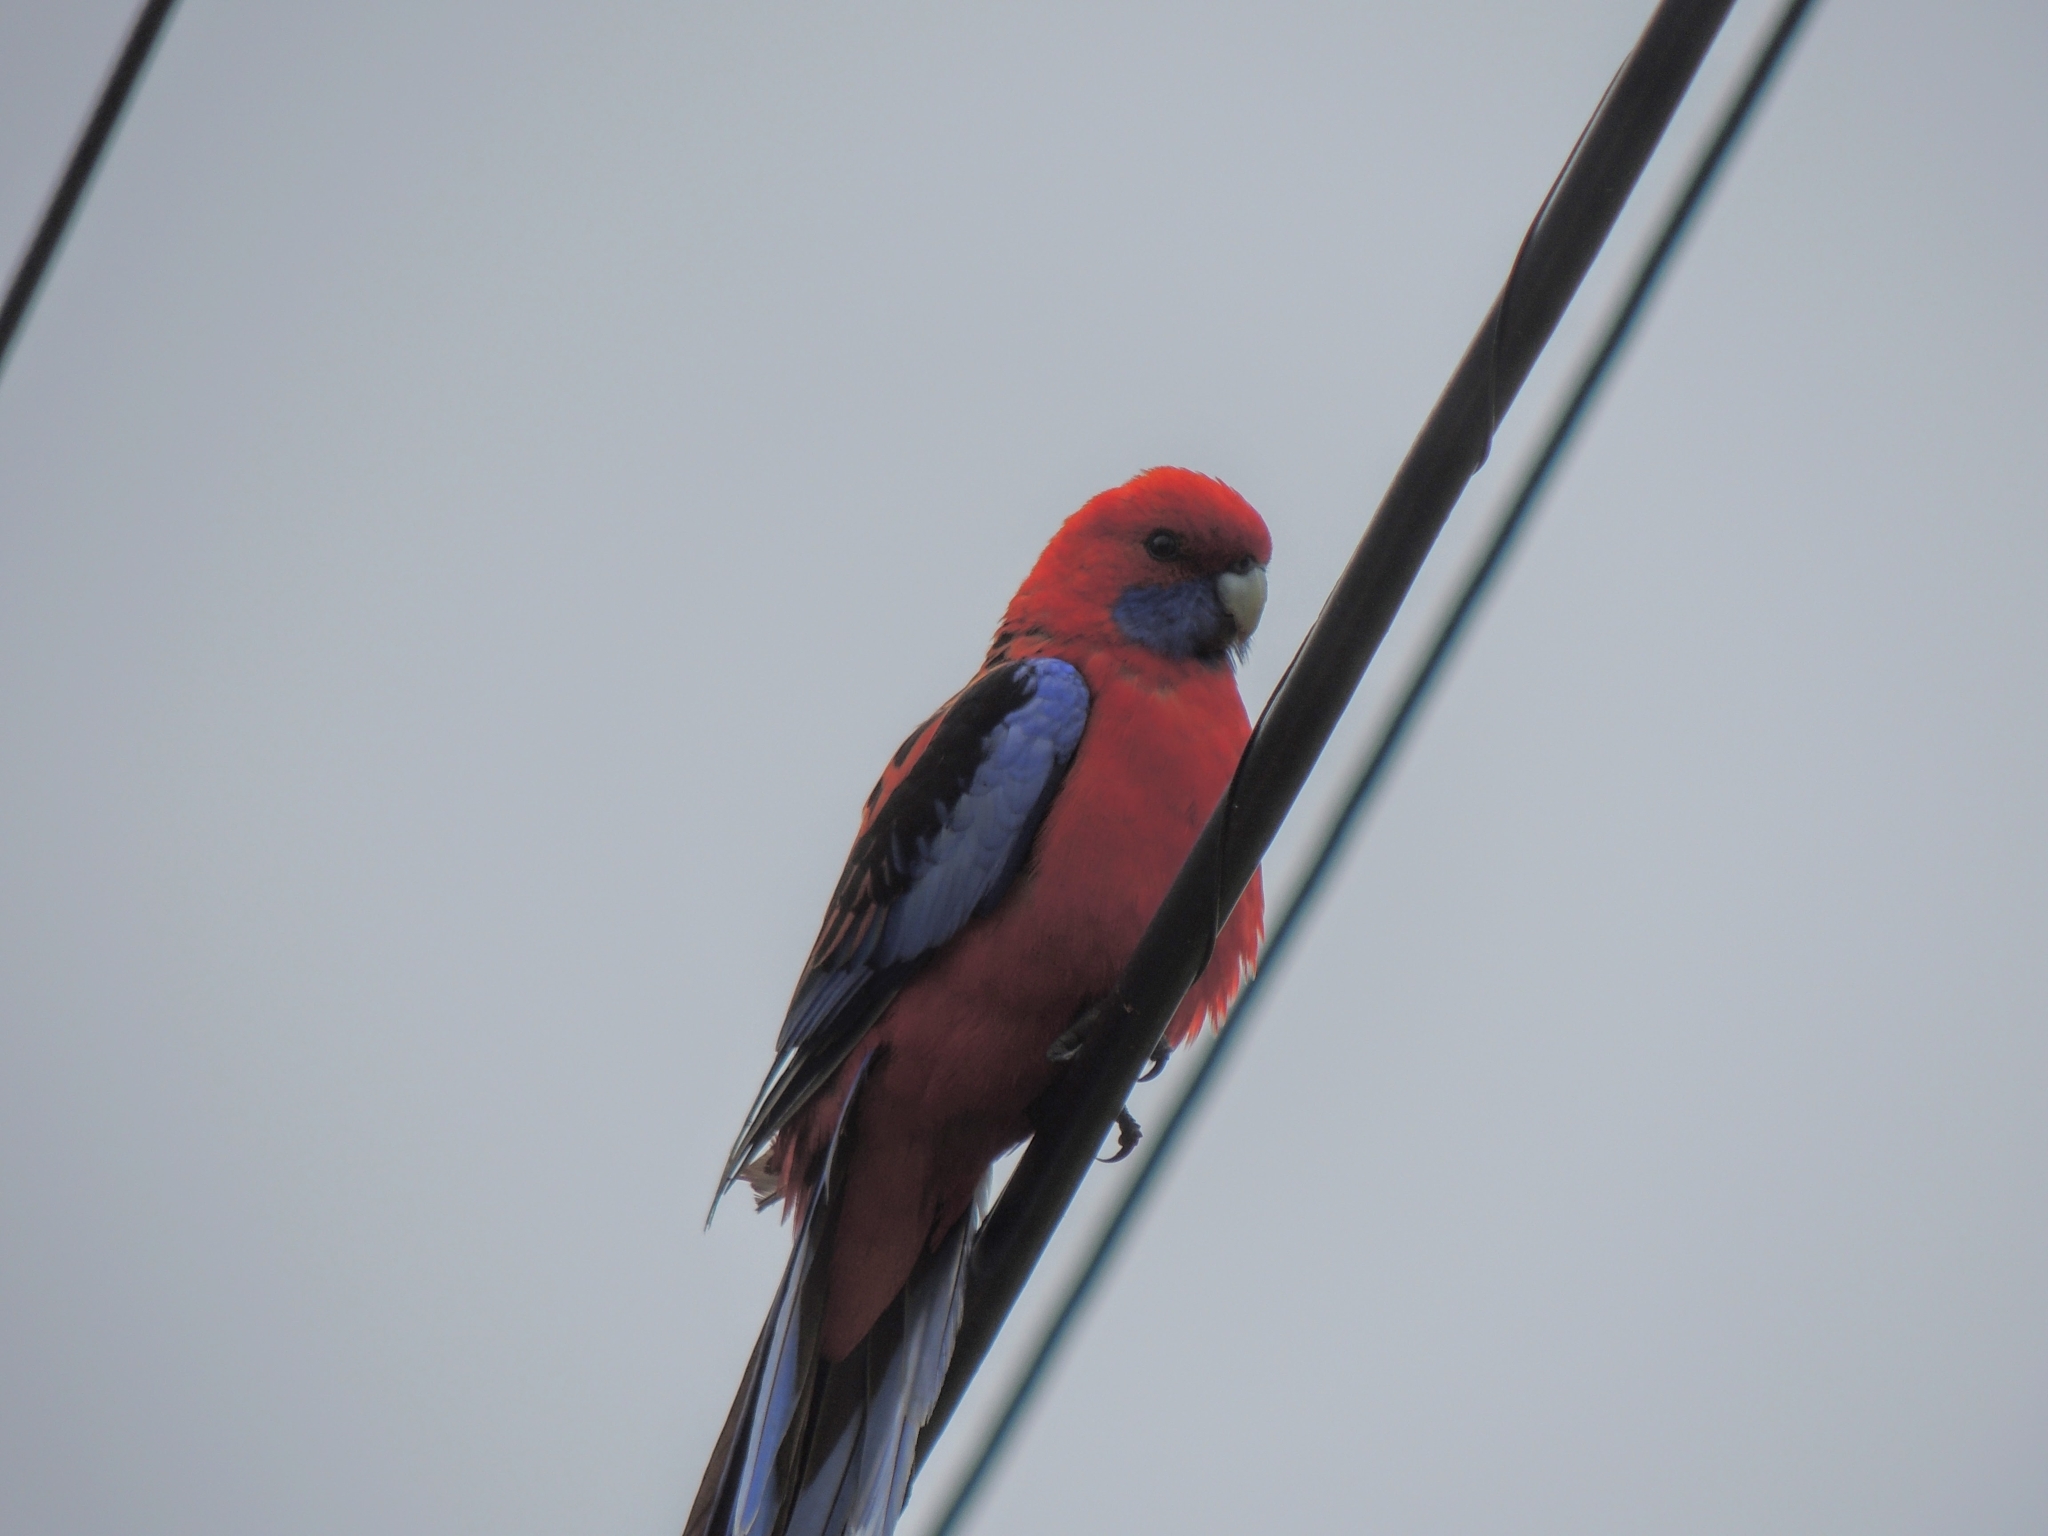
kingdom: Animalia
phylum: Chordata
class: Aves
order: Psittaciformes
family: Psittacidae
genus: Platycercus
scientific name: Platycercus elegans
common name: Crimson rosella
